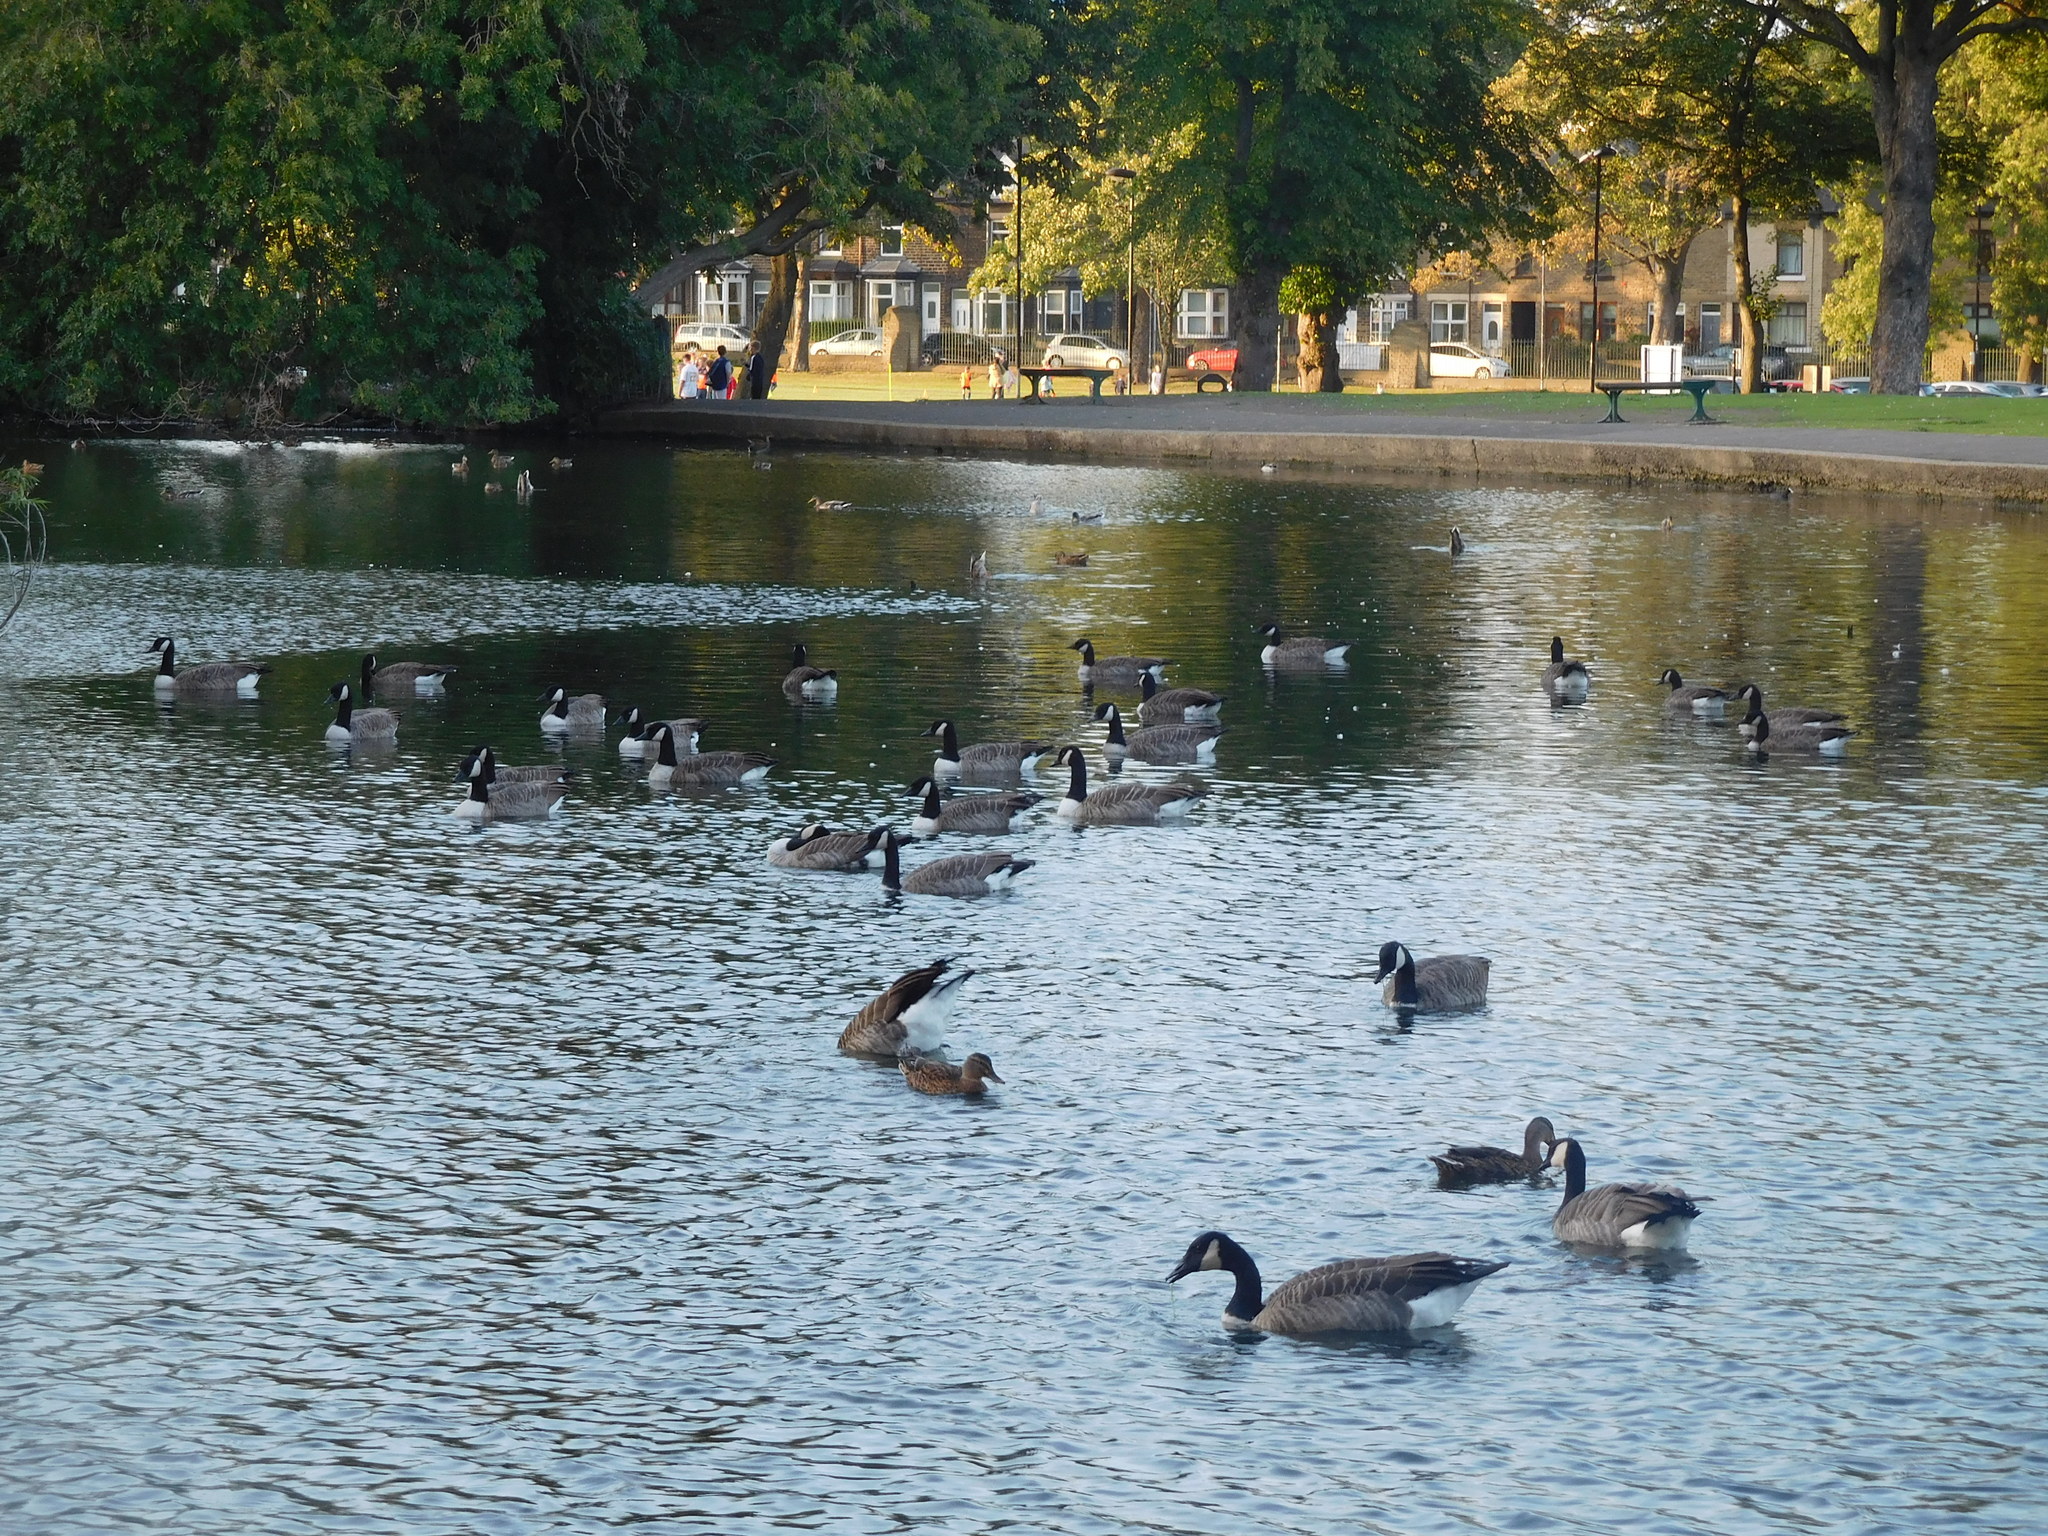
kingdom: Animalia
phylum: Chordata
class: Aves
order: Anseriformes
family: Anatidae
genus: Branta
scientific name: Branta canadensis
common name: Canada goose
